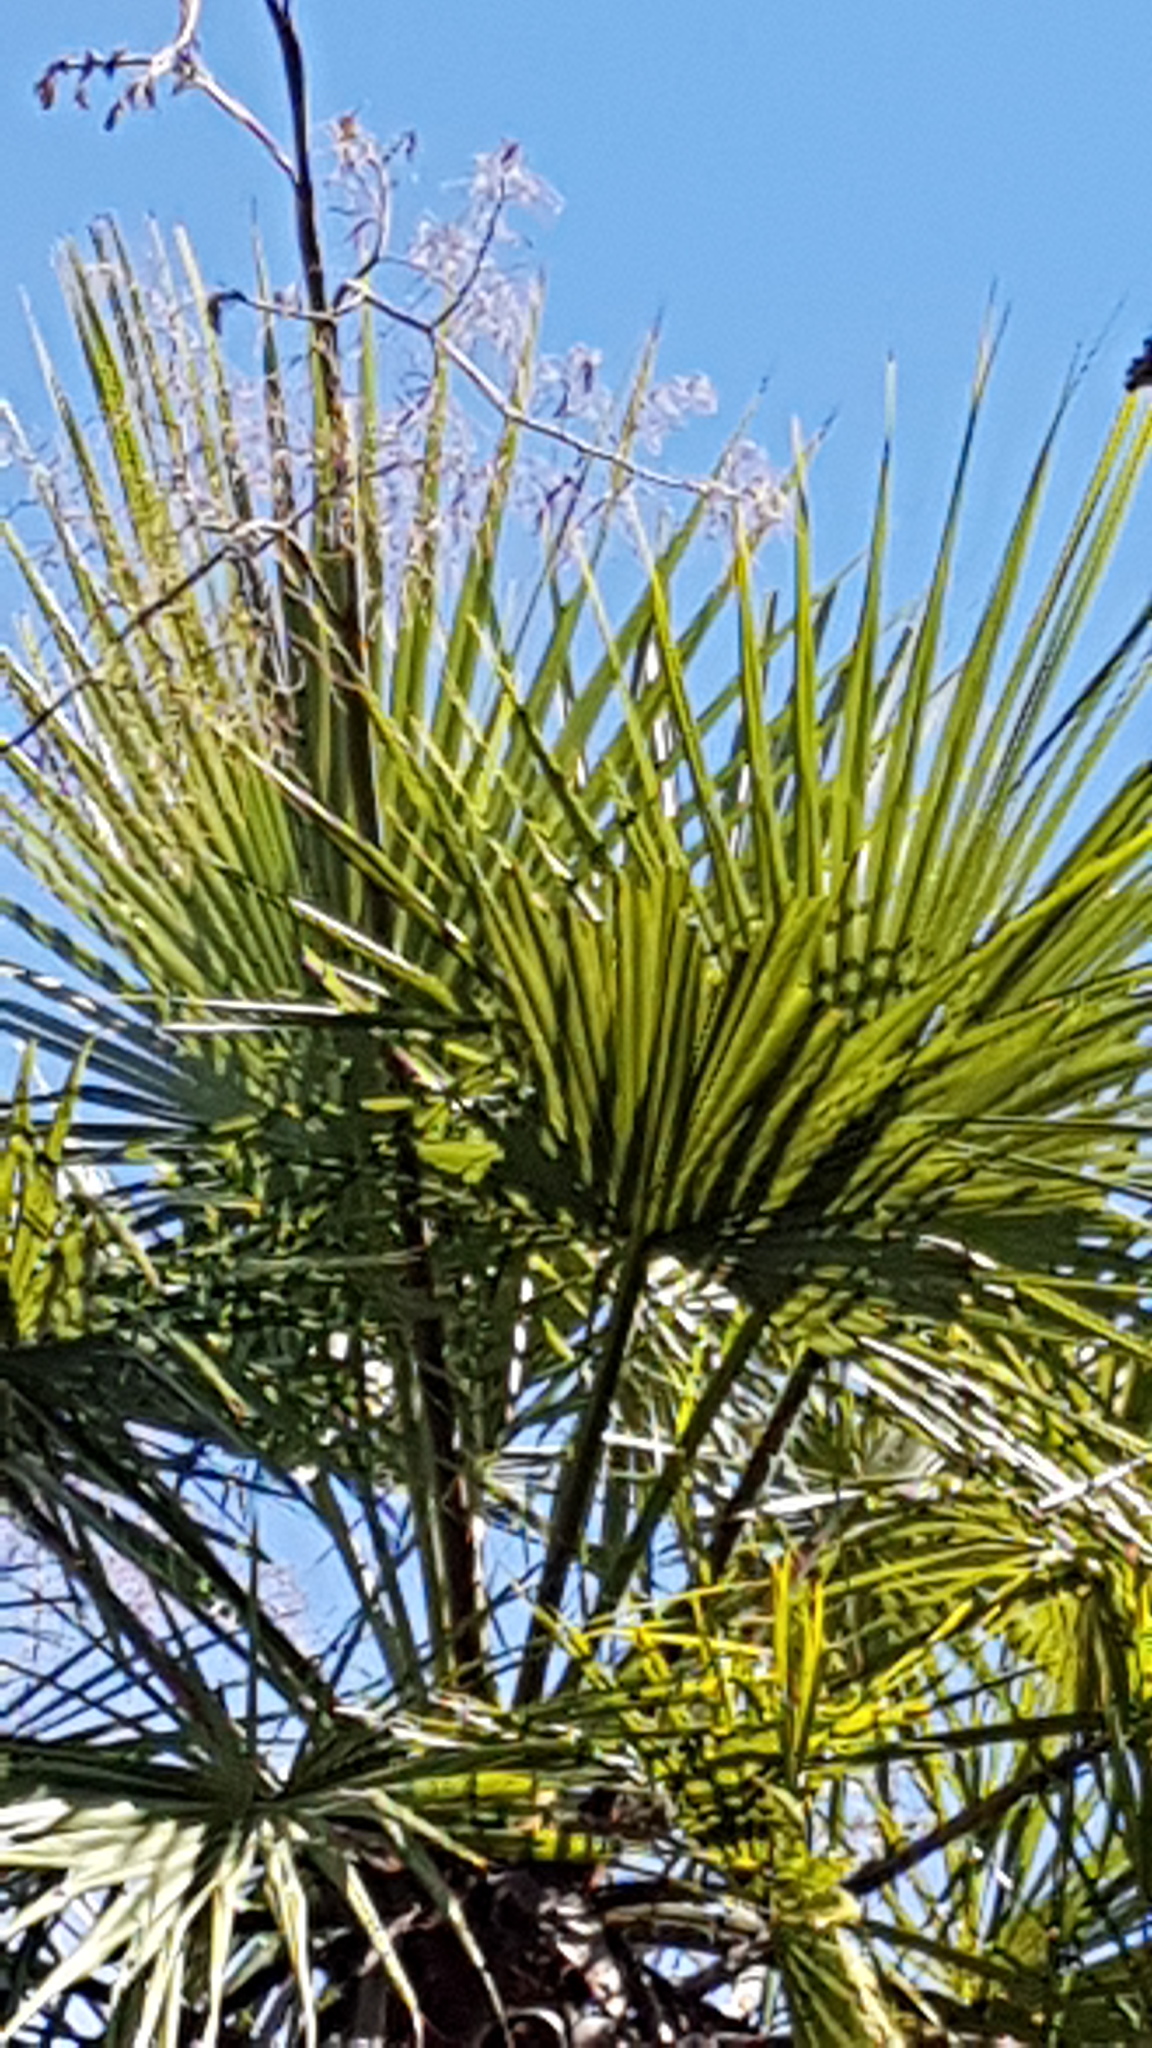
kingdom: Plantae
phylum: Tracheophyta
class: Liliopsida
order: Arecales
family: Arecaceae
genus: Brahea
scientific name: Brahea dulcis
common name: Apak palm
